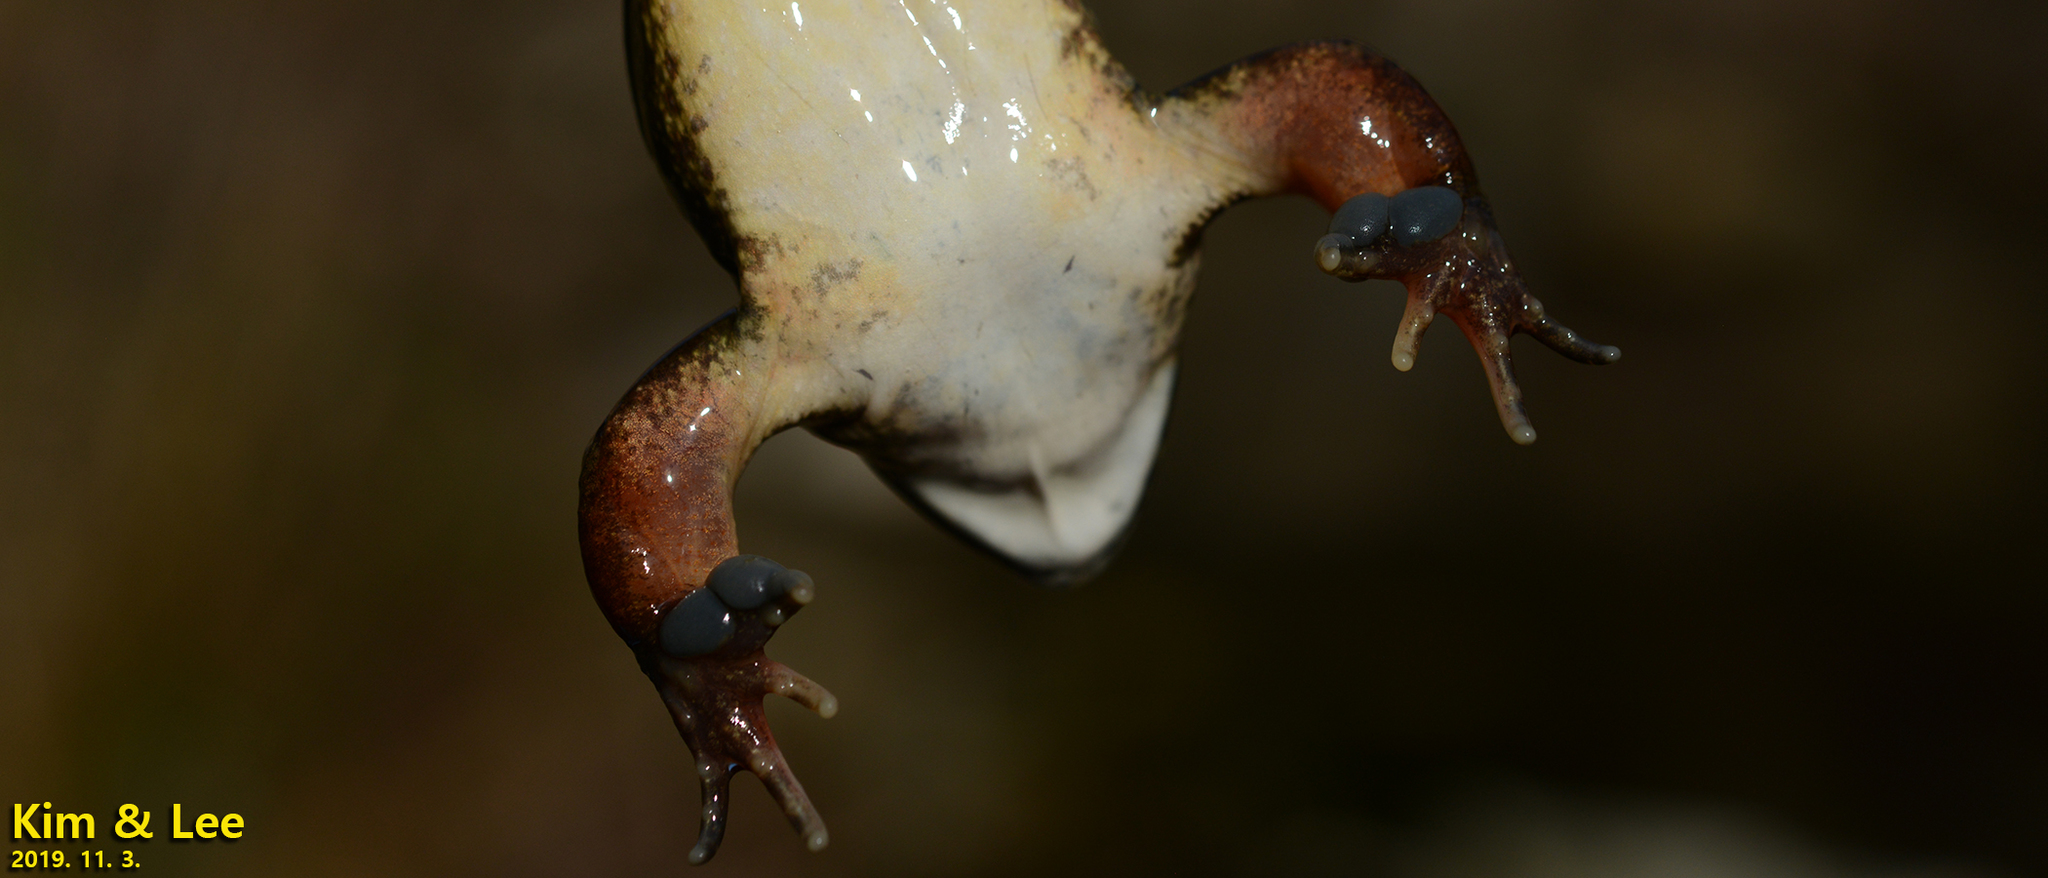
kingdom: Animalia
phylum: Chordata
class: Amphibia
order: Anura
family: Ranidae
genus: Rana
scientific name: Rana uenoi
